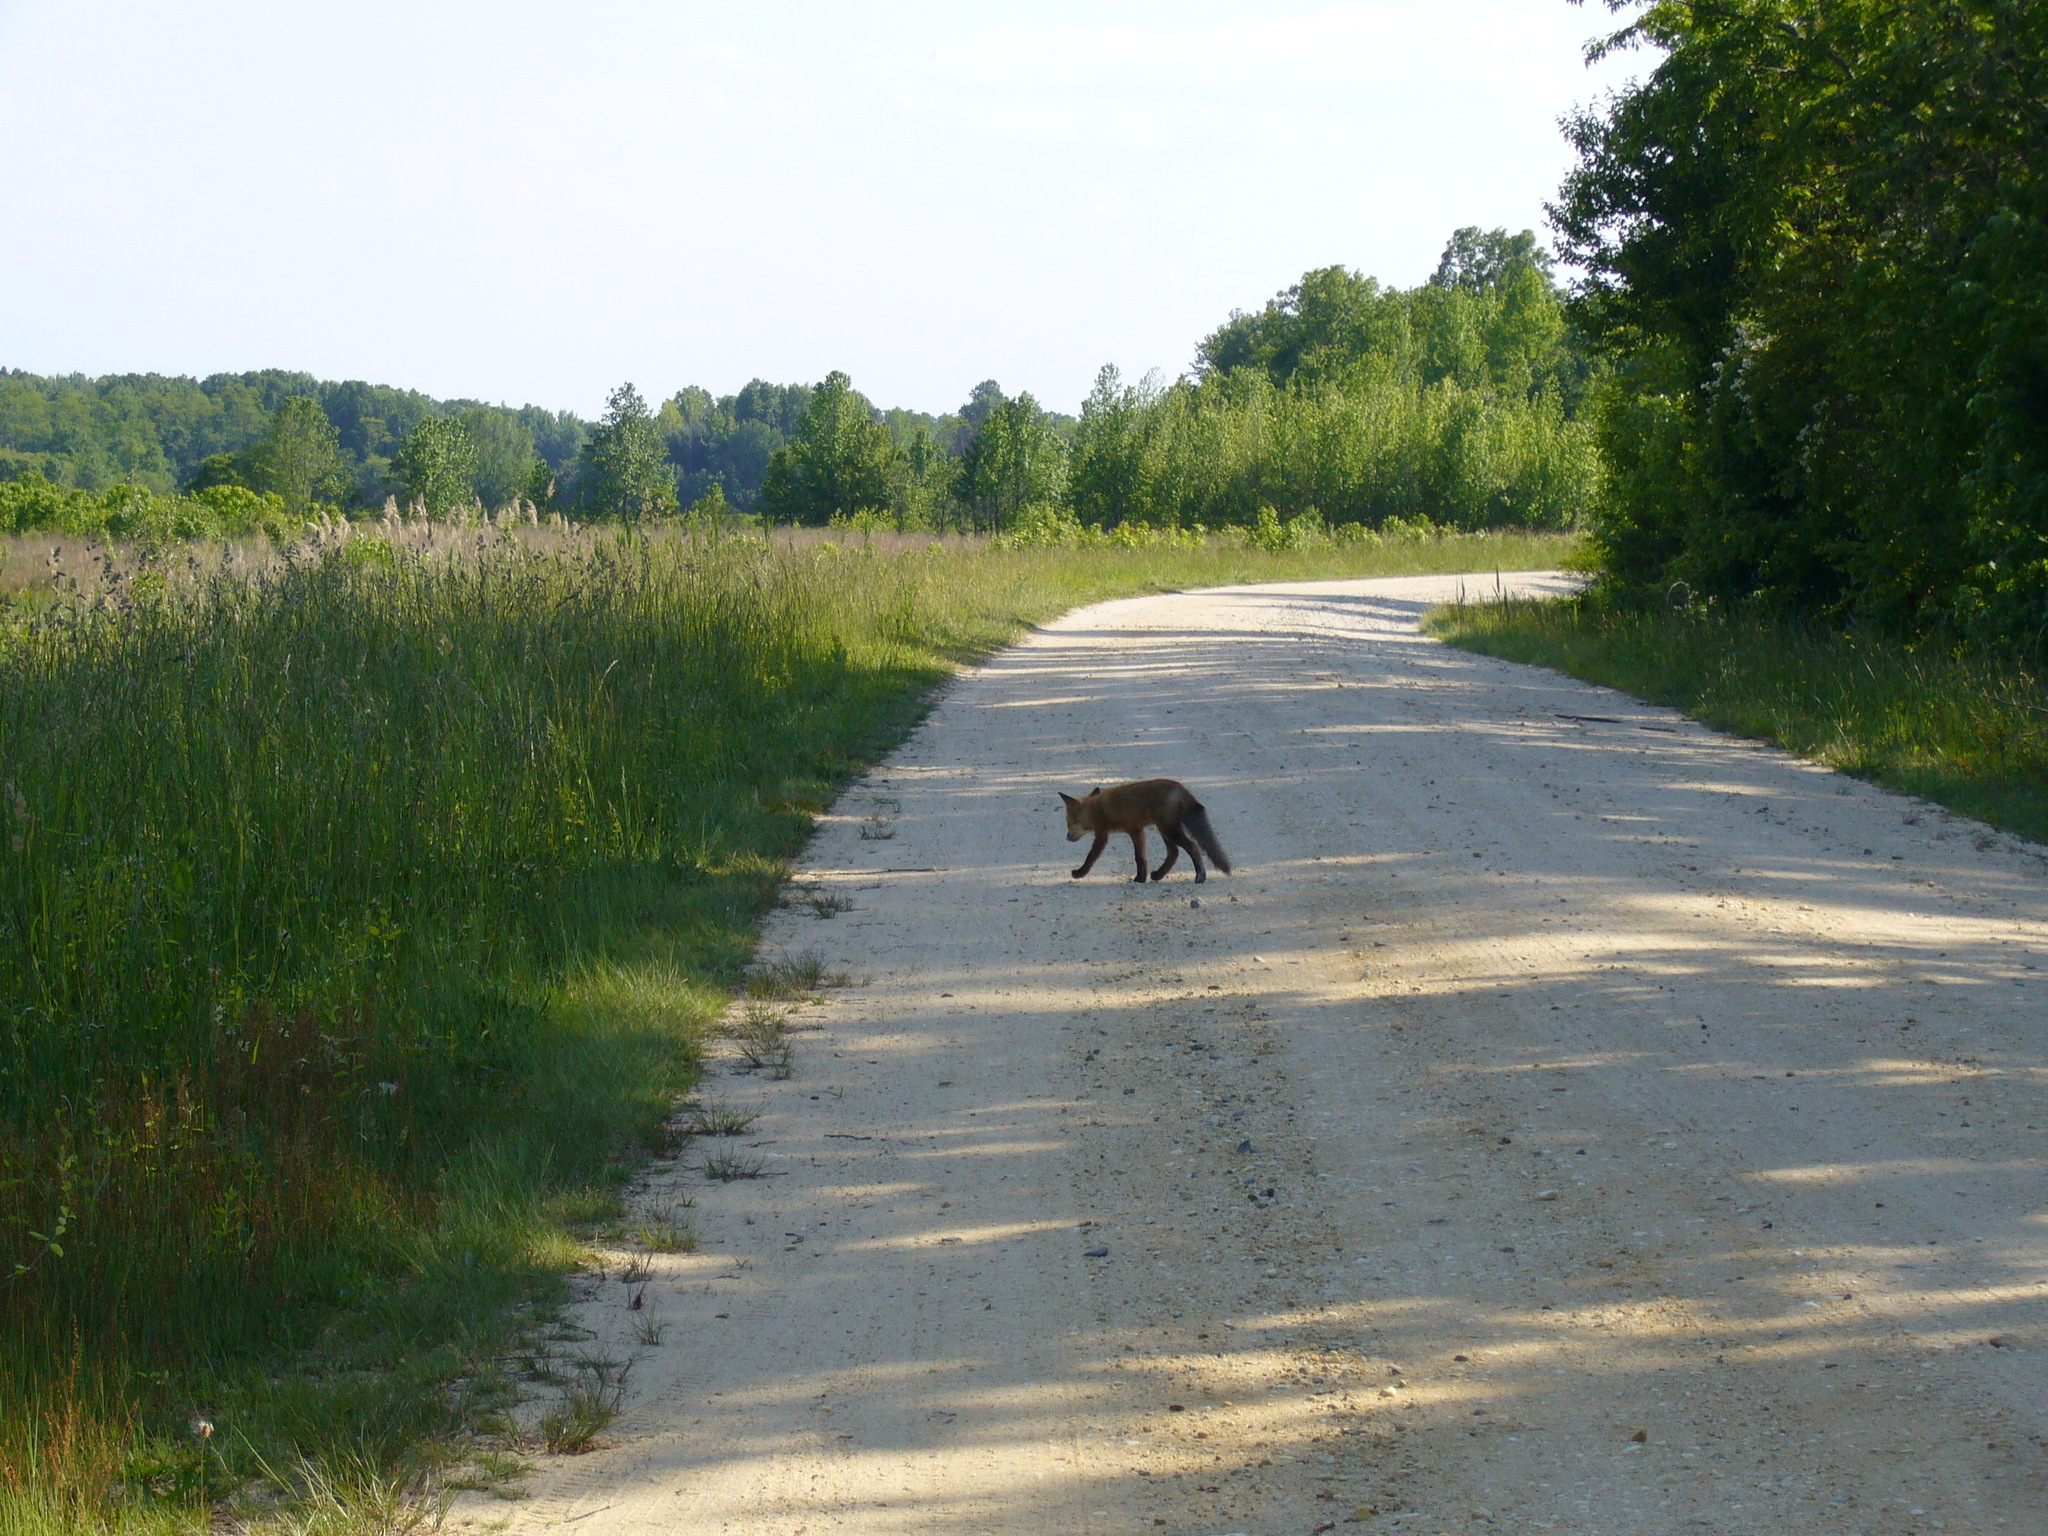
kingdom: Animalia
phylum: Chordata
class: Mammalia
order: Carnivora
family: Canidae
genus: Vulpes
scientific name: Vulpes vulpes
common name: Red fox
